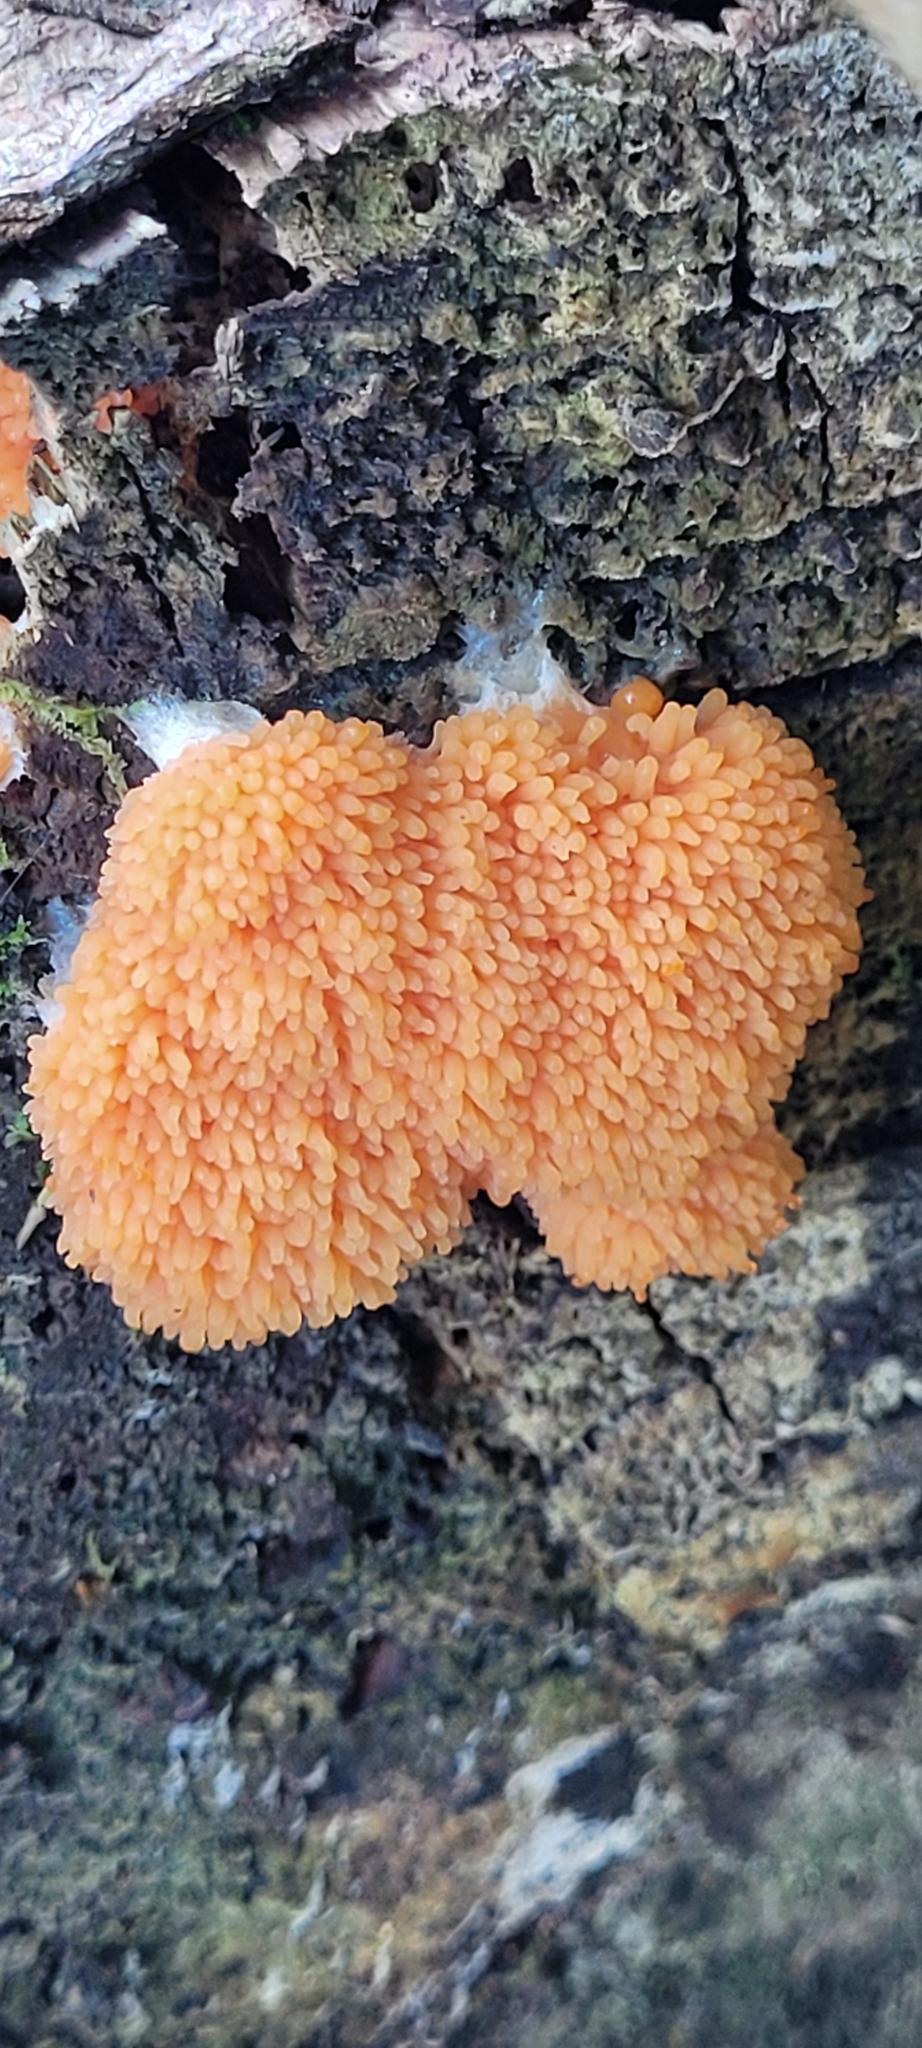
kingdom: Protozoa
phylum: Mycetozoa
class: Myxomycetes
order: Cribrariales
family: Tubiferaceae
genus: Tubifera
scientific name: Tubifera ferruginosa
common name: Red raspberry slime mold
